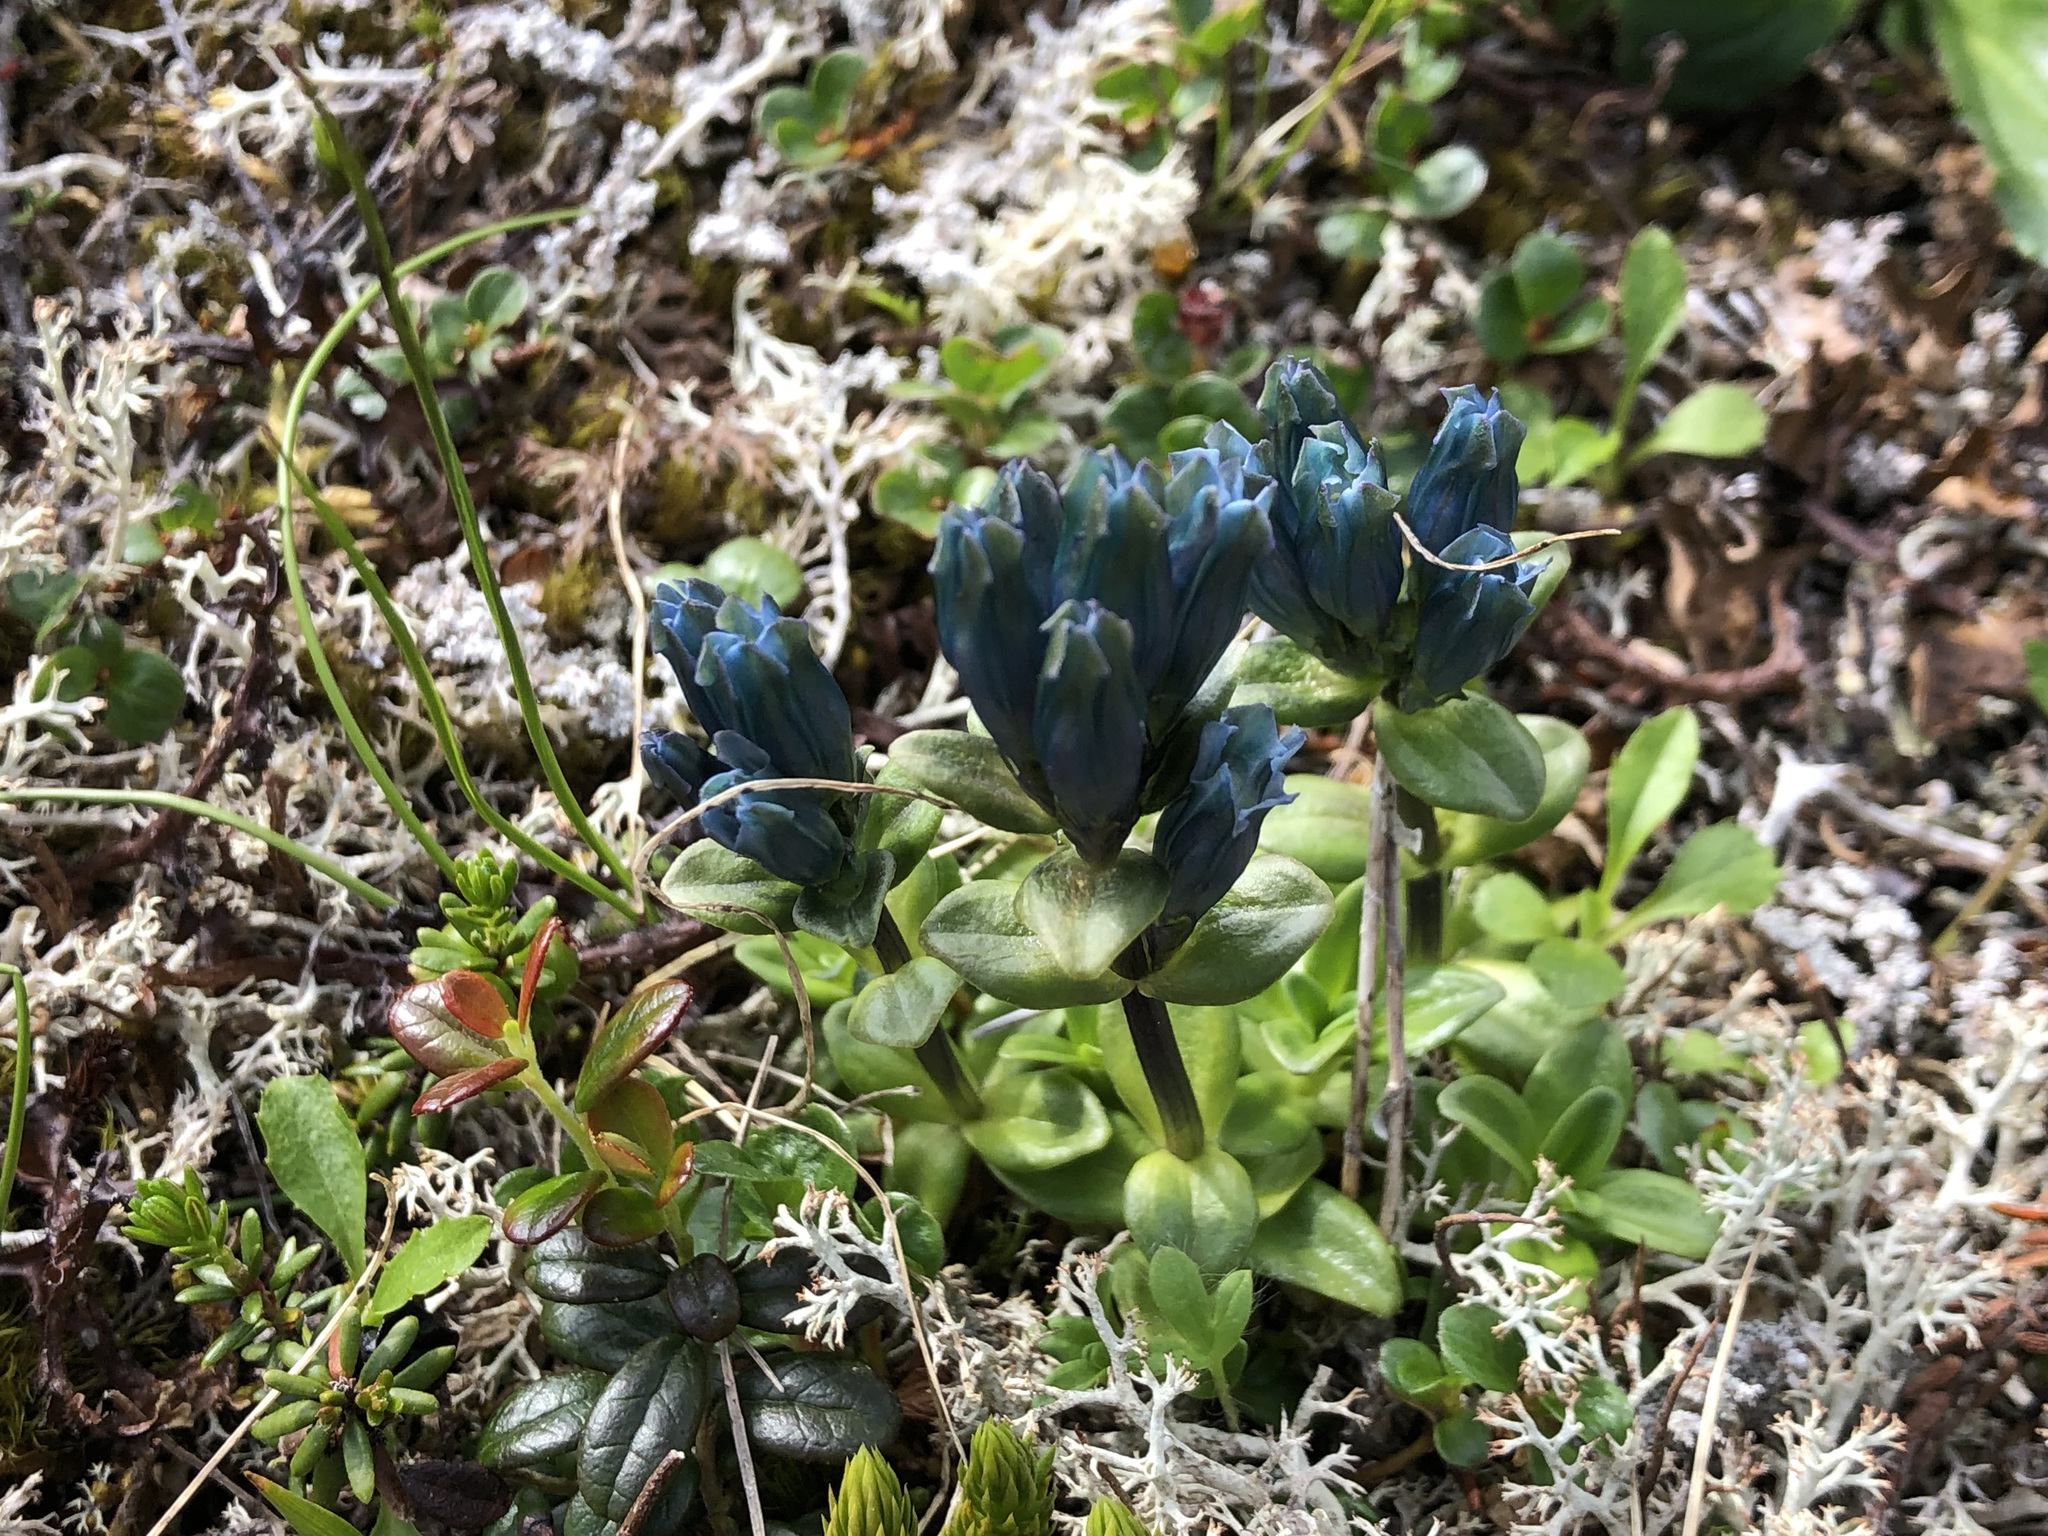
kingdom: Plantae
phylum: Tracheophyta
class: Magnoliopsida
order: Gentianales
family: Gentianaceae
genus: Gentiana
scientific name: Gentiana glauca
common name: Alpine gentian
